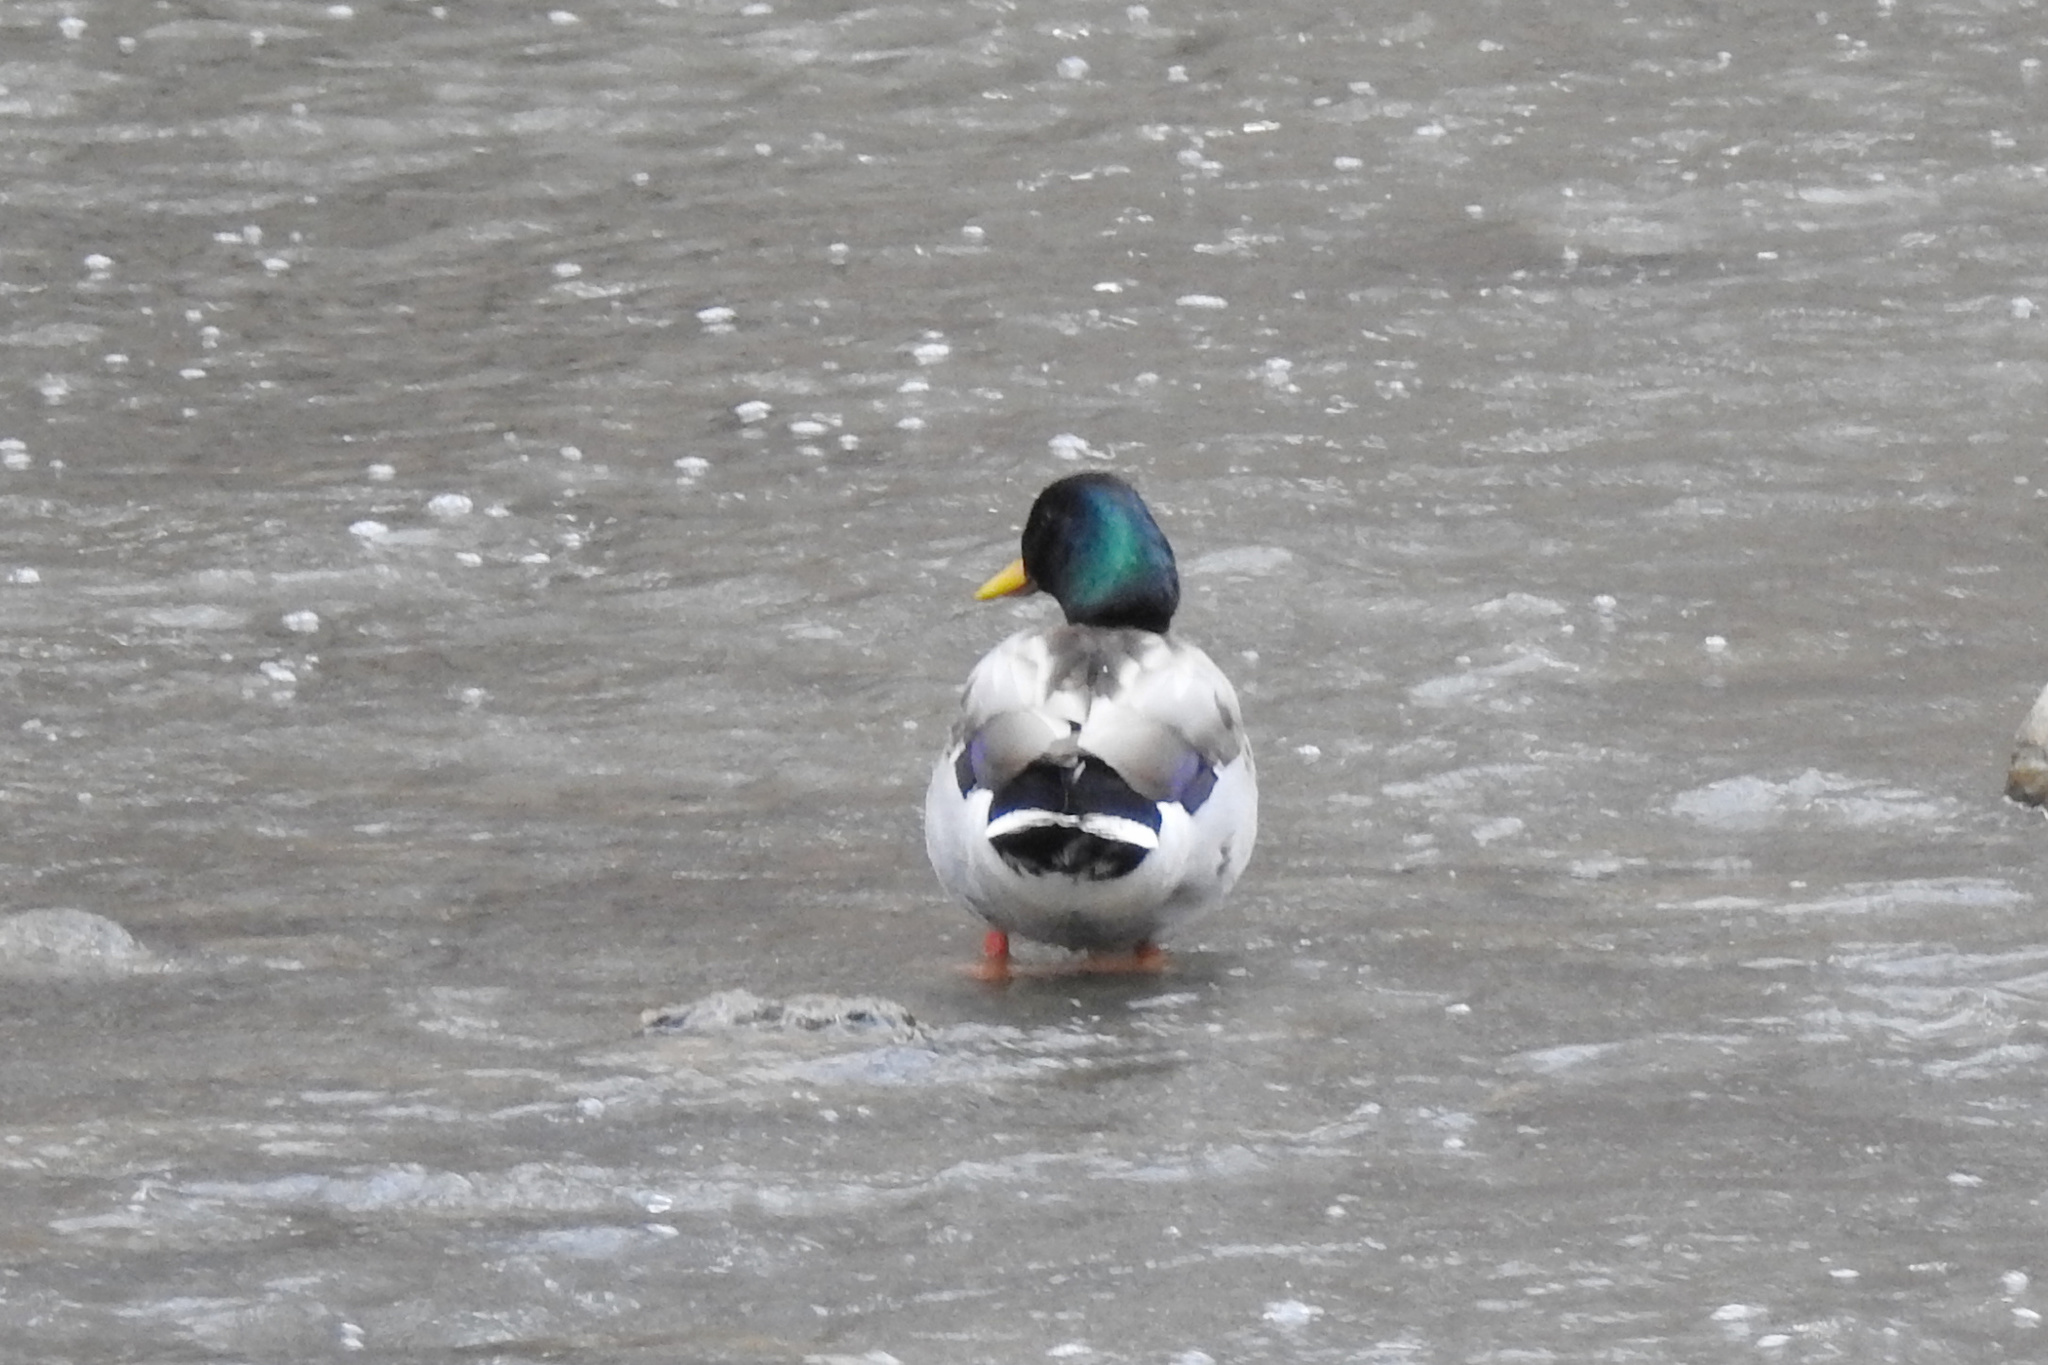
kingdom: Animalia
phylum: Chordata
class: Aves
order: Anseriformes
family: Anatidae
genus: Anas
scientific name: Anas platyrhynchos
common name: Mallard
